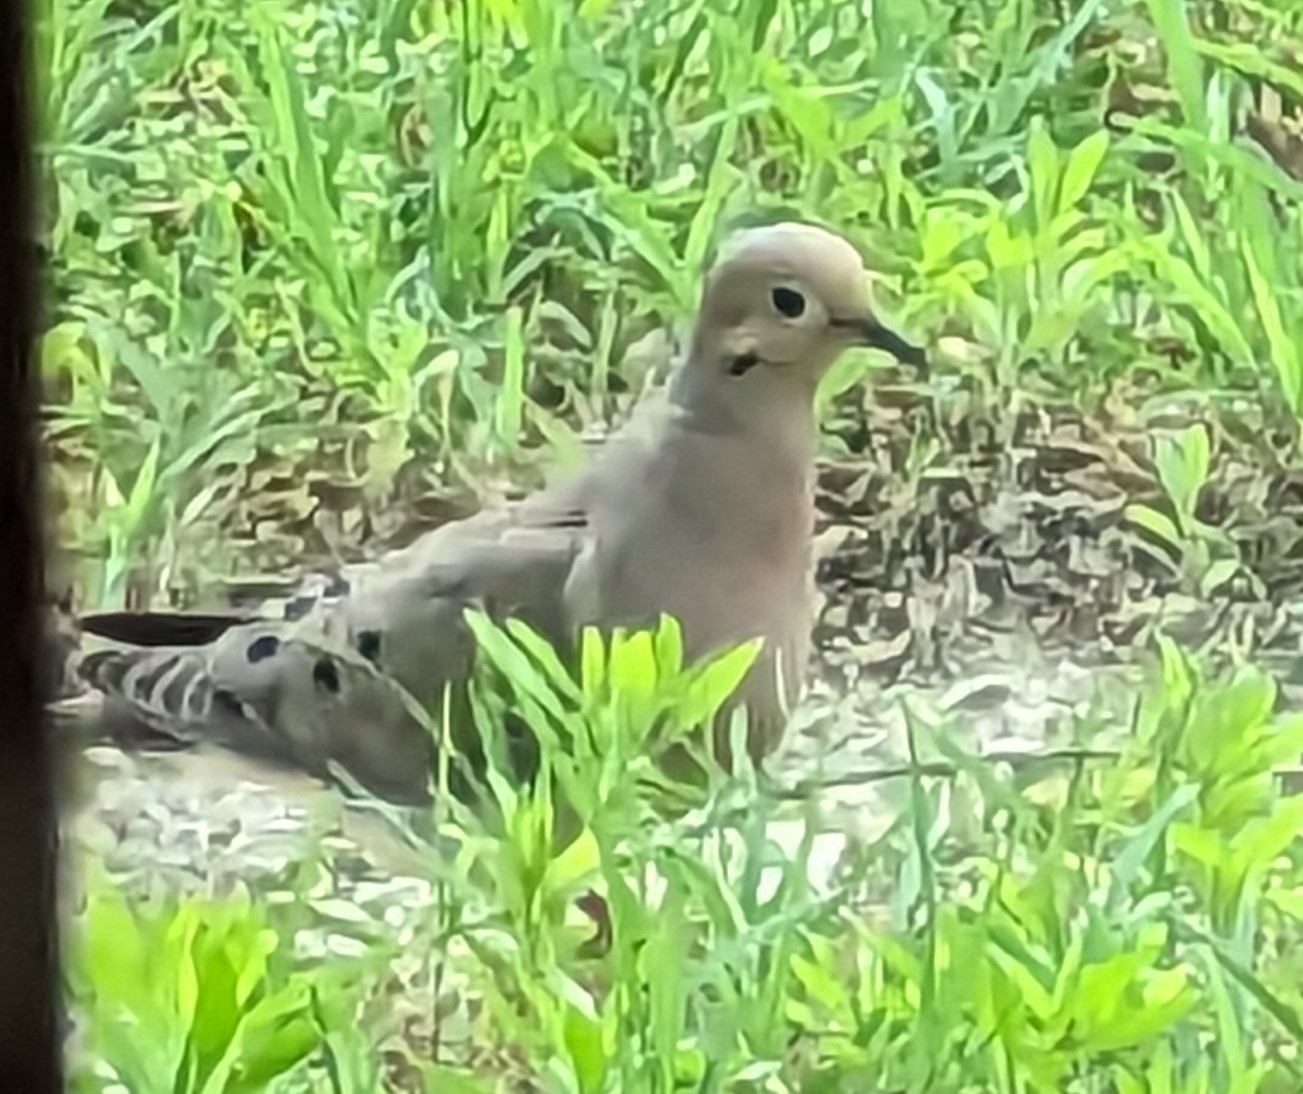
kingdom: Animalia
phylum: Chordata
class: Aves
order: Columbiformes
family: Columbidae
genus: Zenaida
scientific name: Zenaida macroura
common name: Mourning dove
